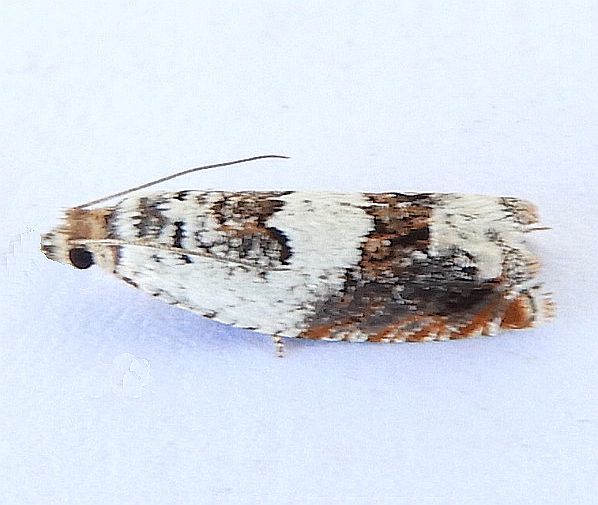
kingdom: Animalia
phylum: Arthropoda
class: Insecta
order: Lepidoptera
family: Tortricidae
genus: Epinotia
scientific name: Epinotia nigralbana
